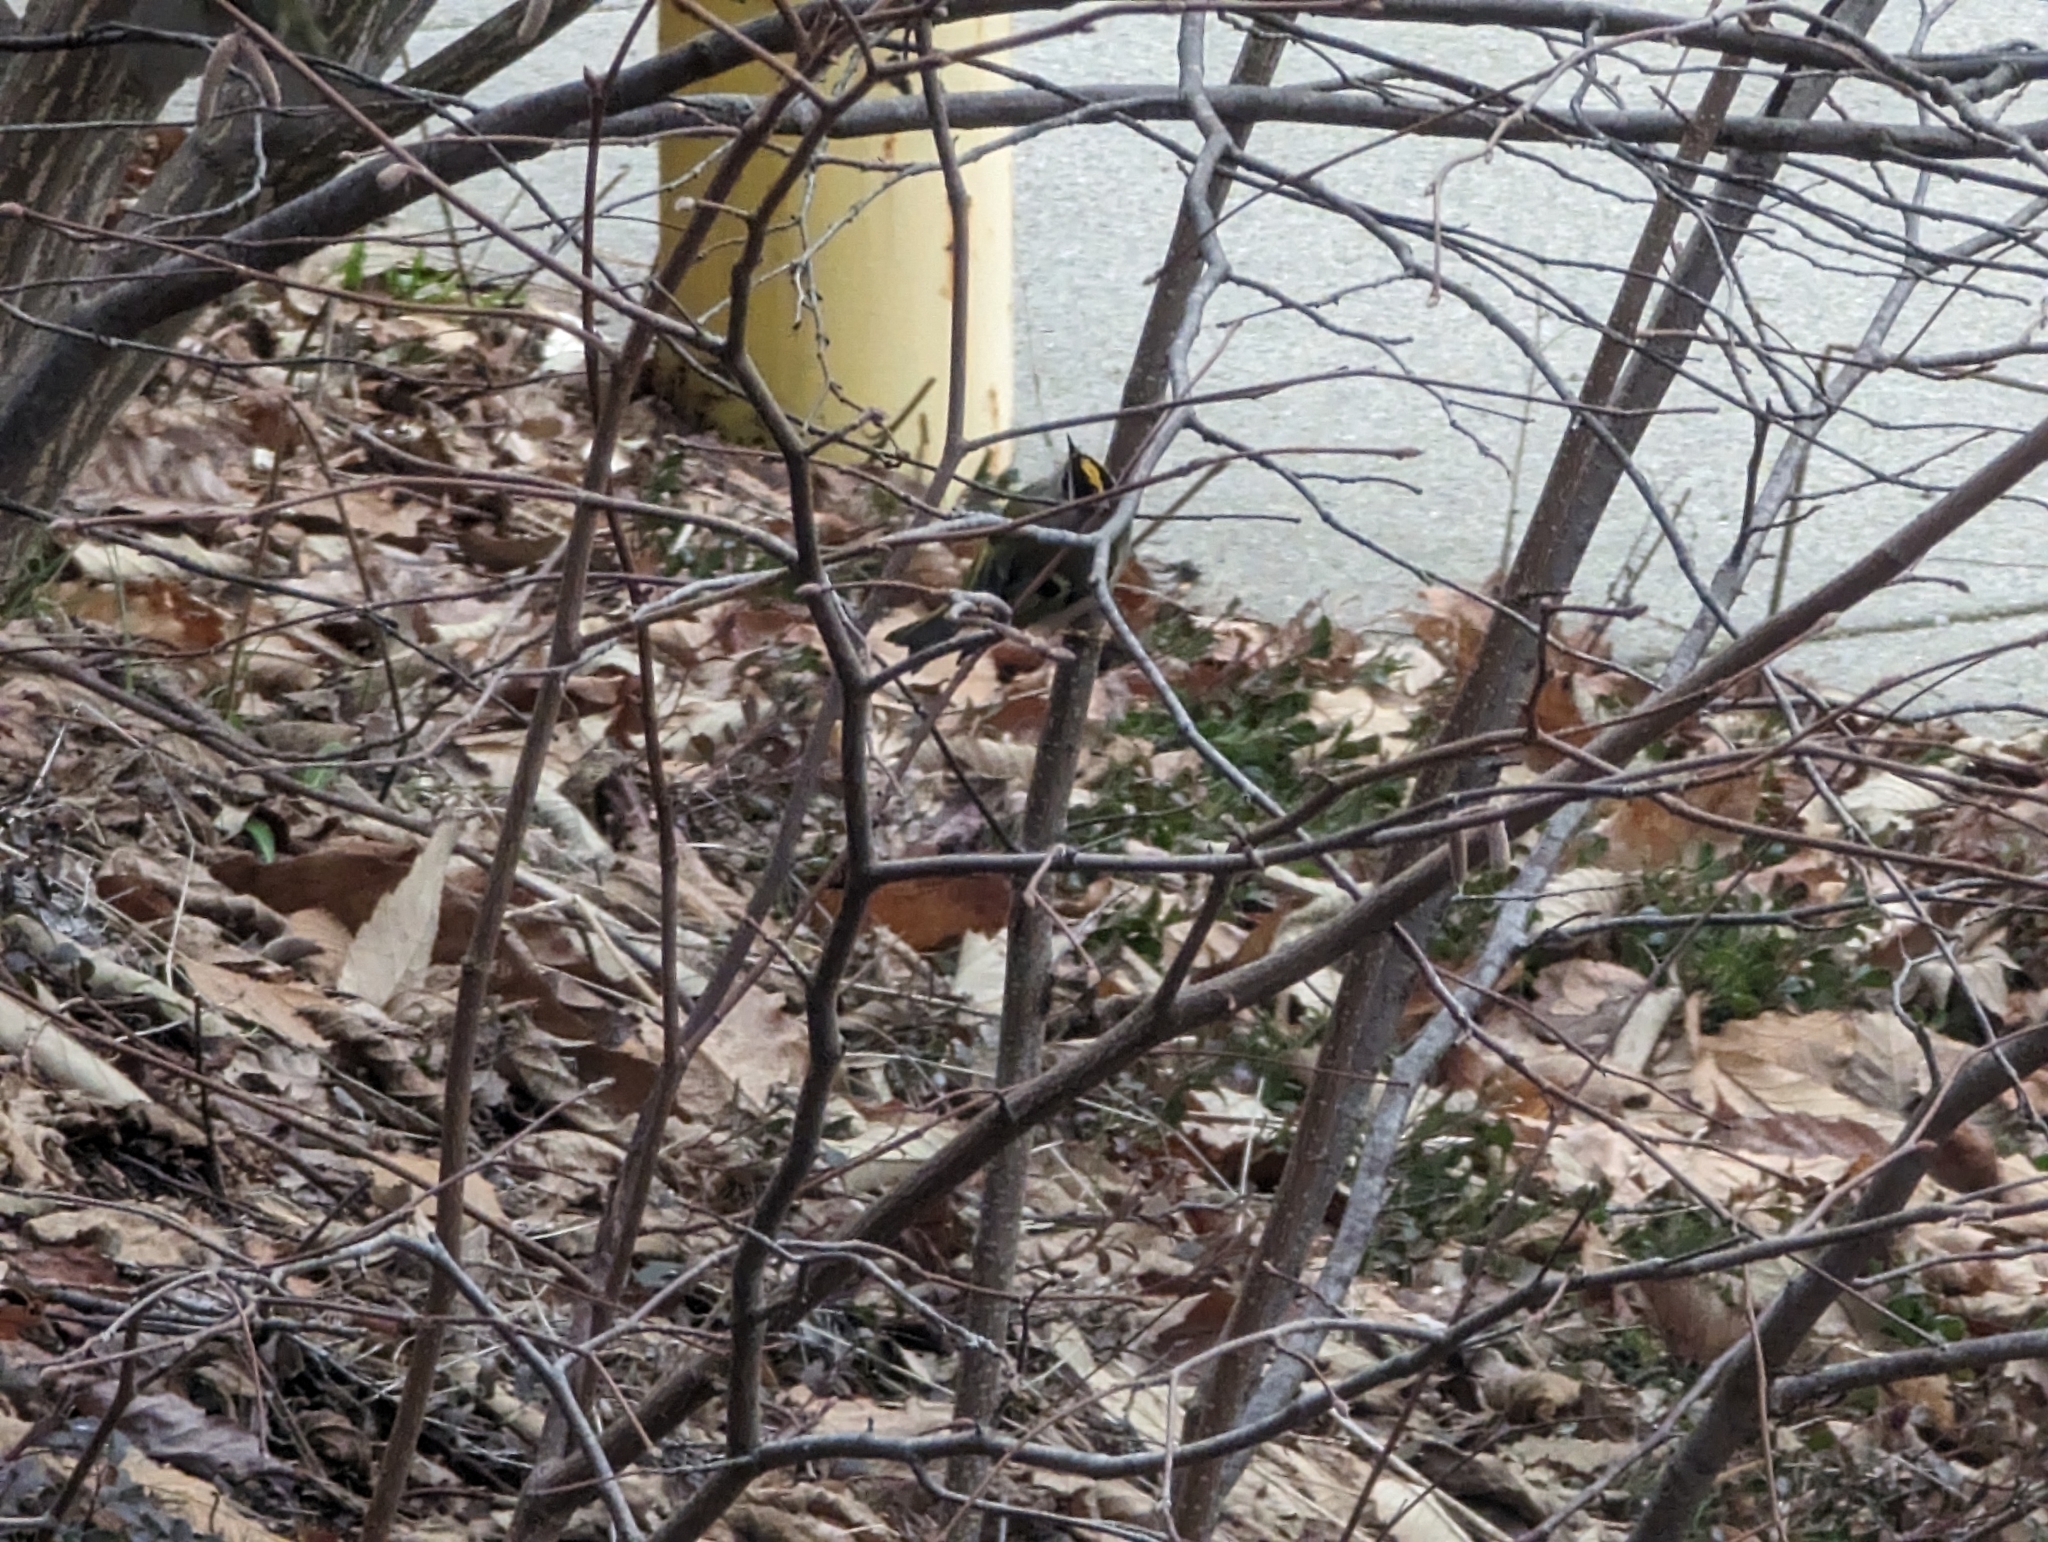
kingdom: Animalia
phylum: Chordata
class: Aves
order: Passeriformes
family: Regulidae
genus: Regulus
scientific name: Regulus satrapa
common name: Golden-crowned kinglet
